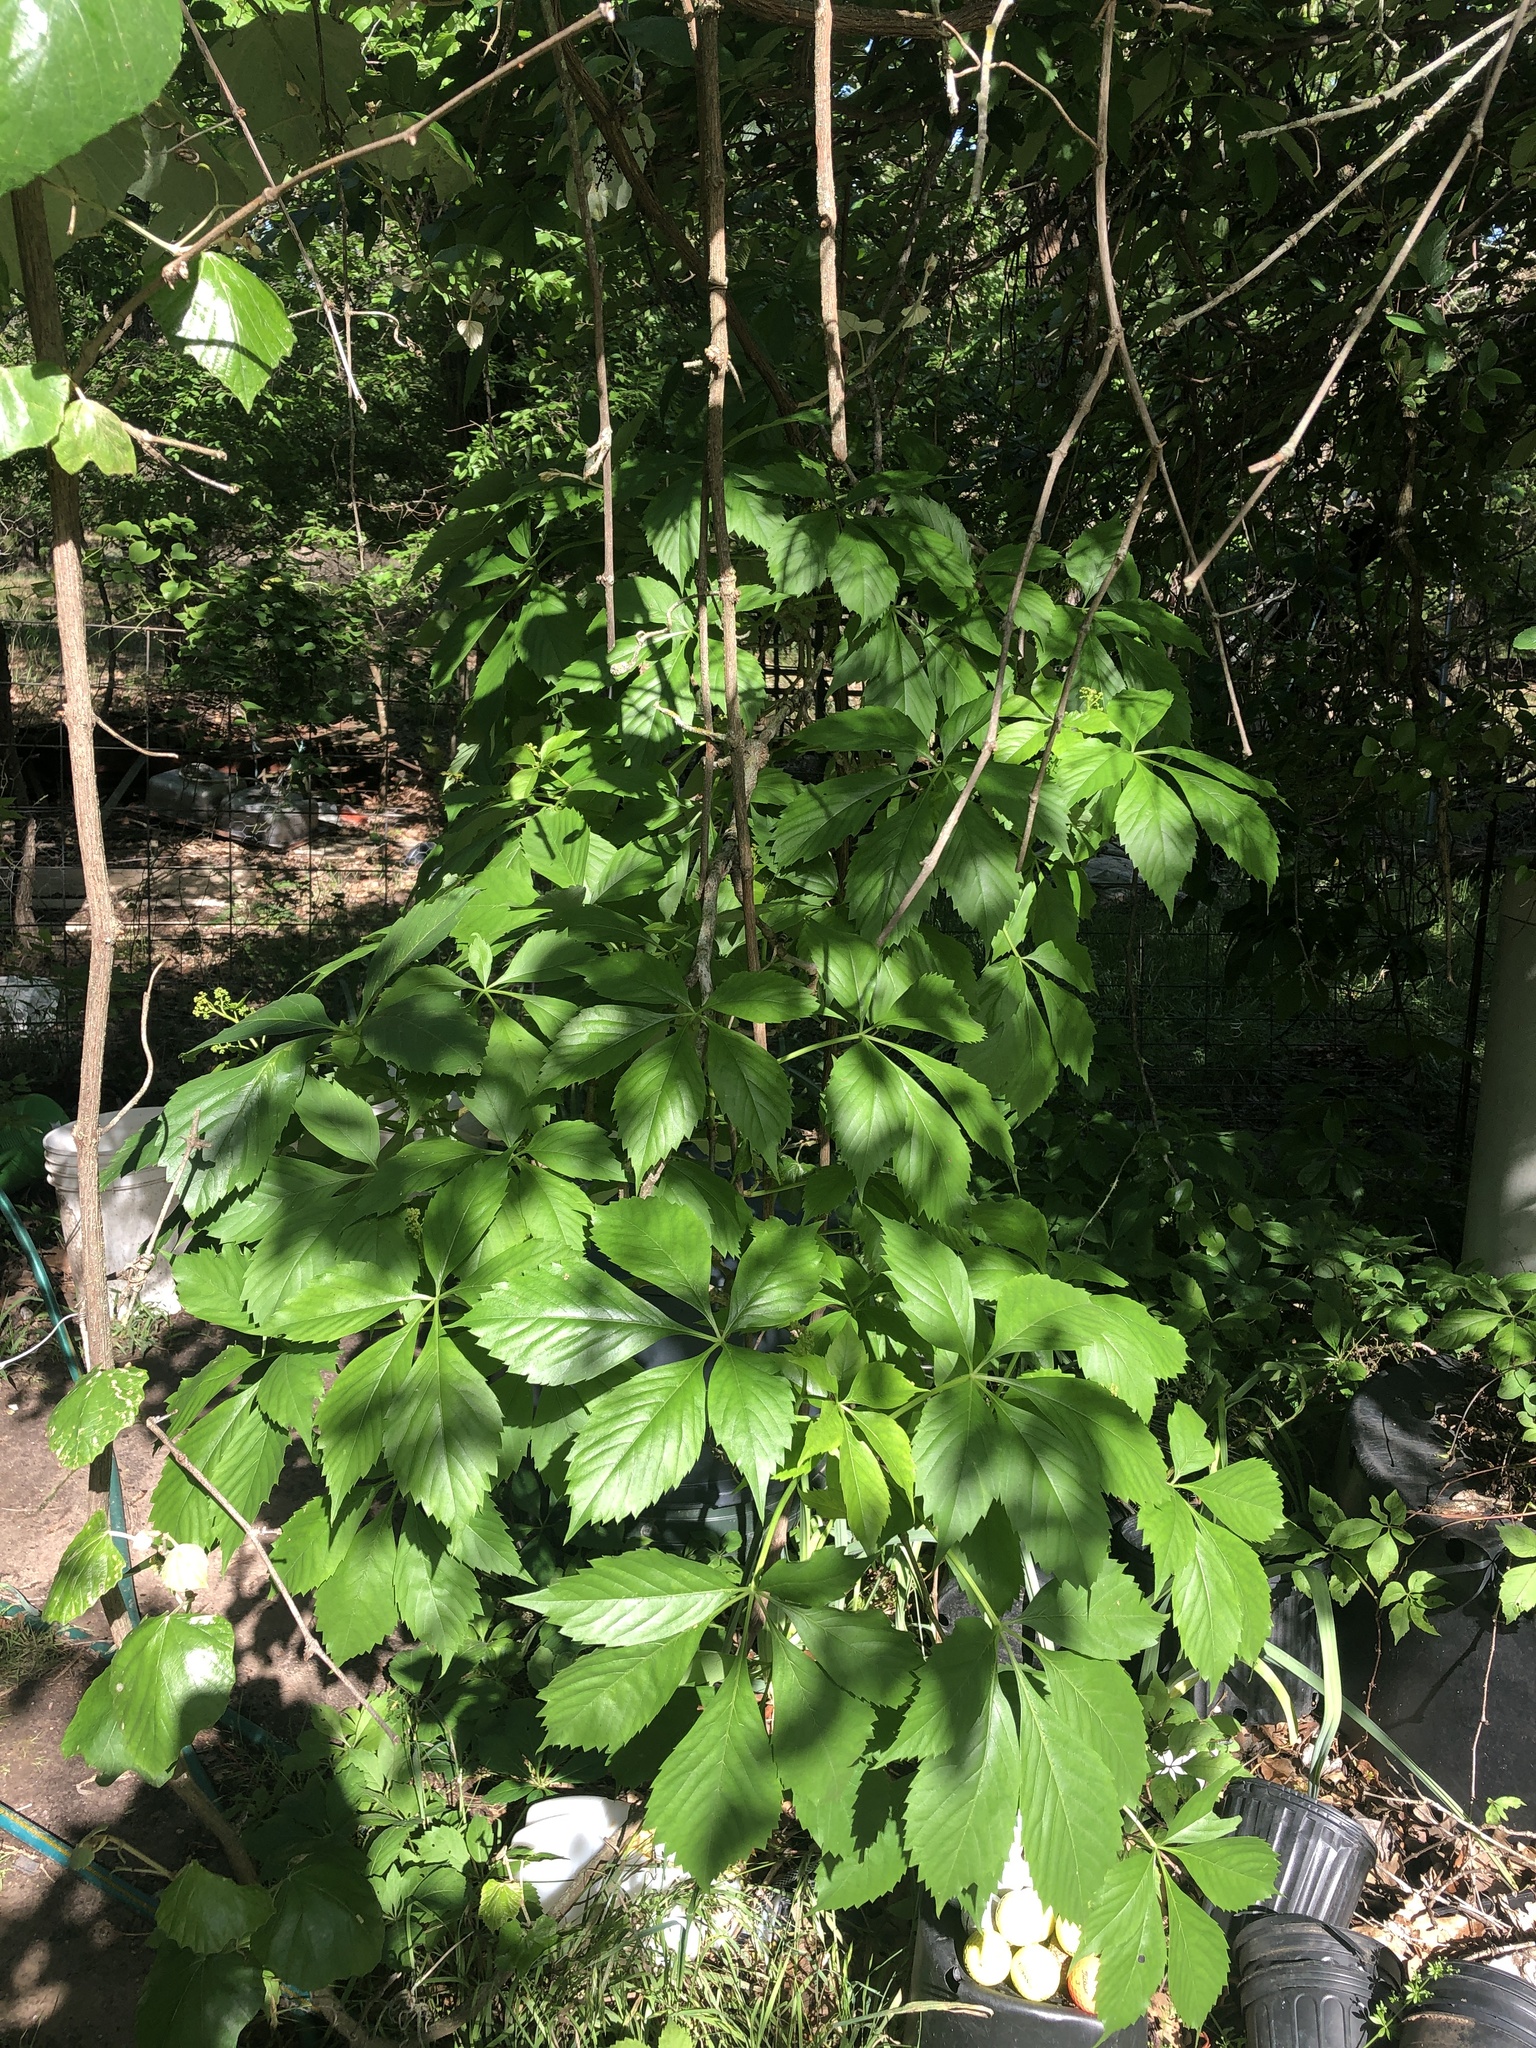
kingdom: Plantae
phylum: Tracheophyta
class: Magnoliopsida
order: Vitales
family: Vitaceae
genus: Parthenocissus
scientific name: Parthenocissus quinquefolia
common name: Virginia-creeper
